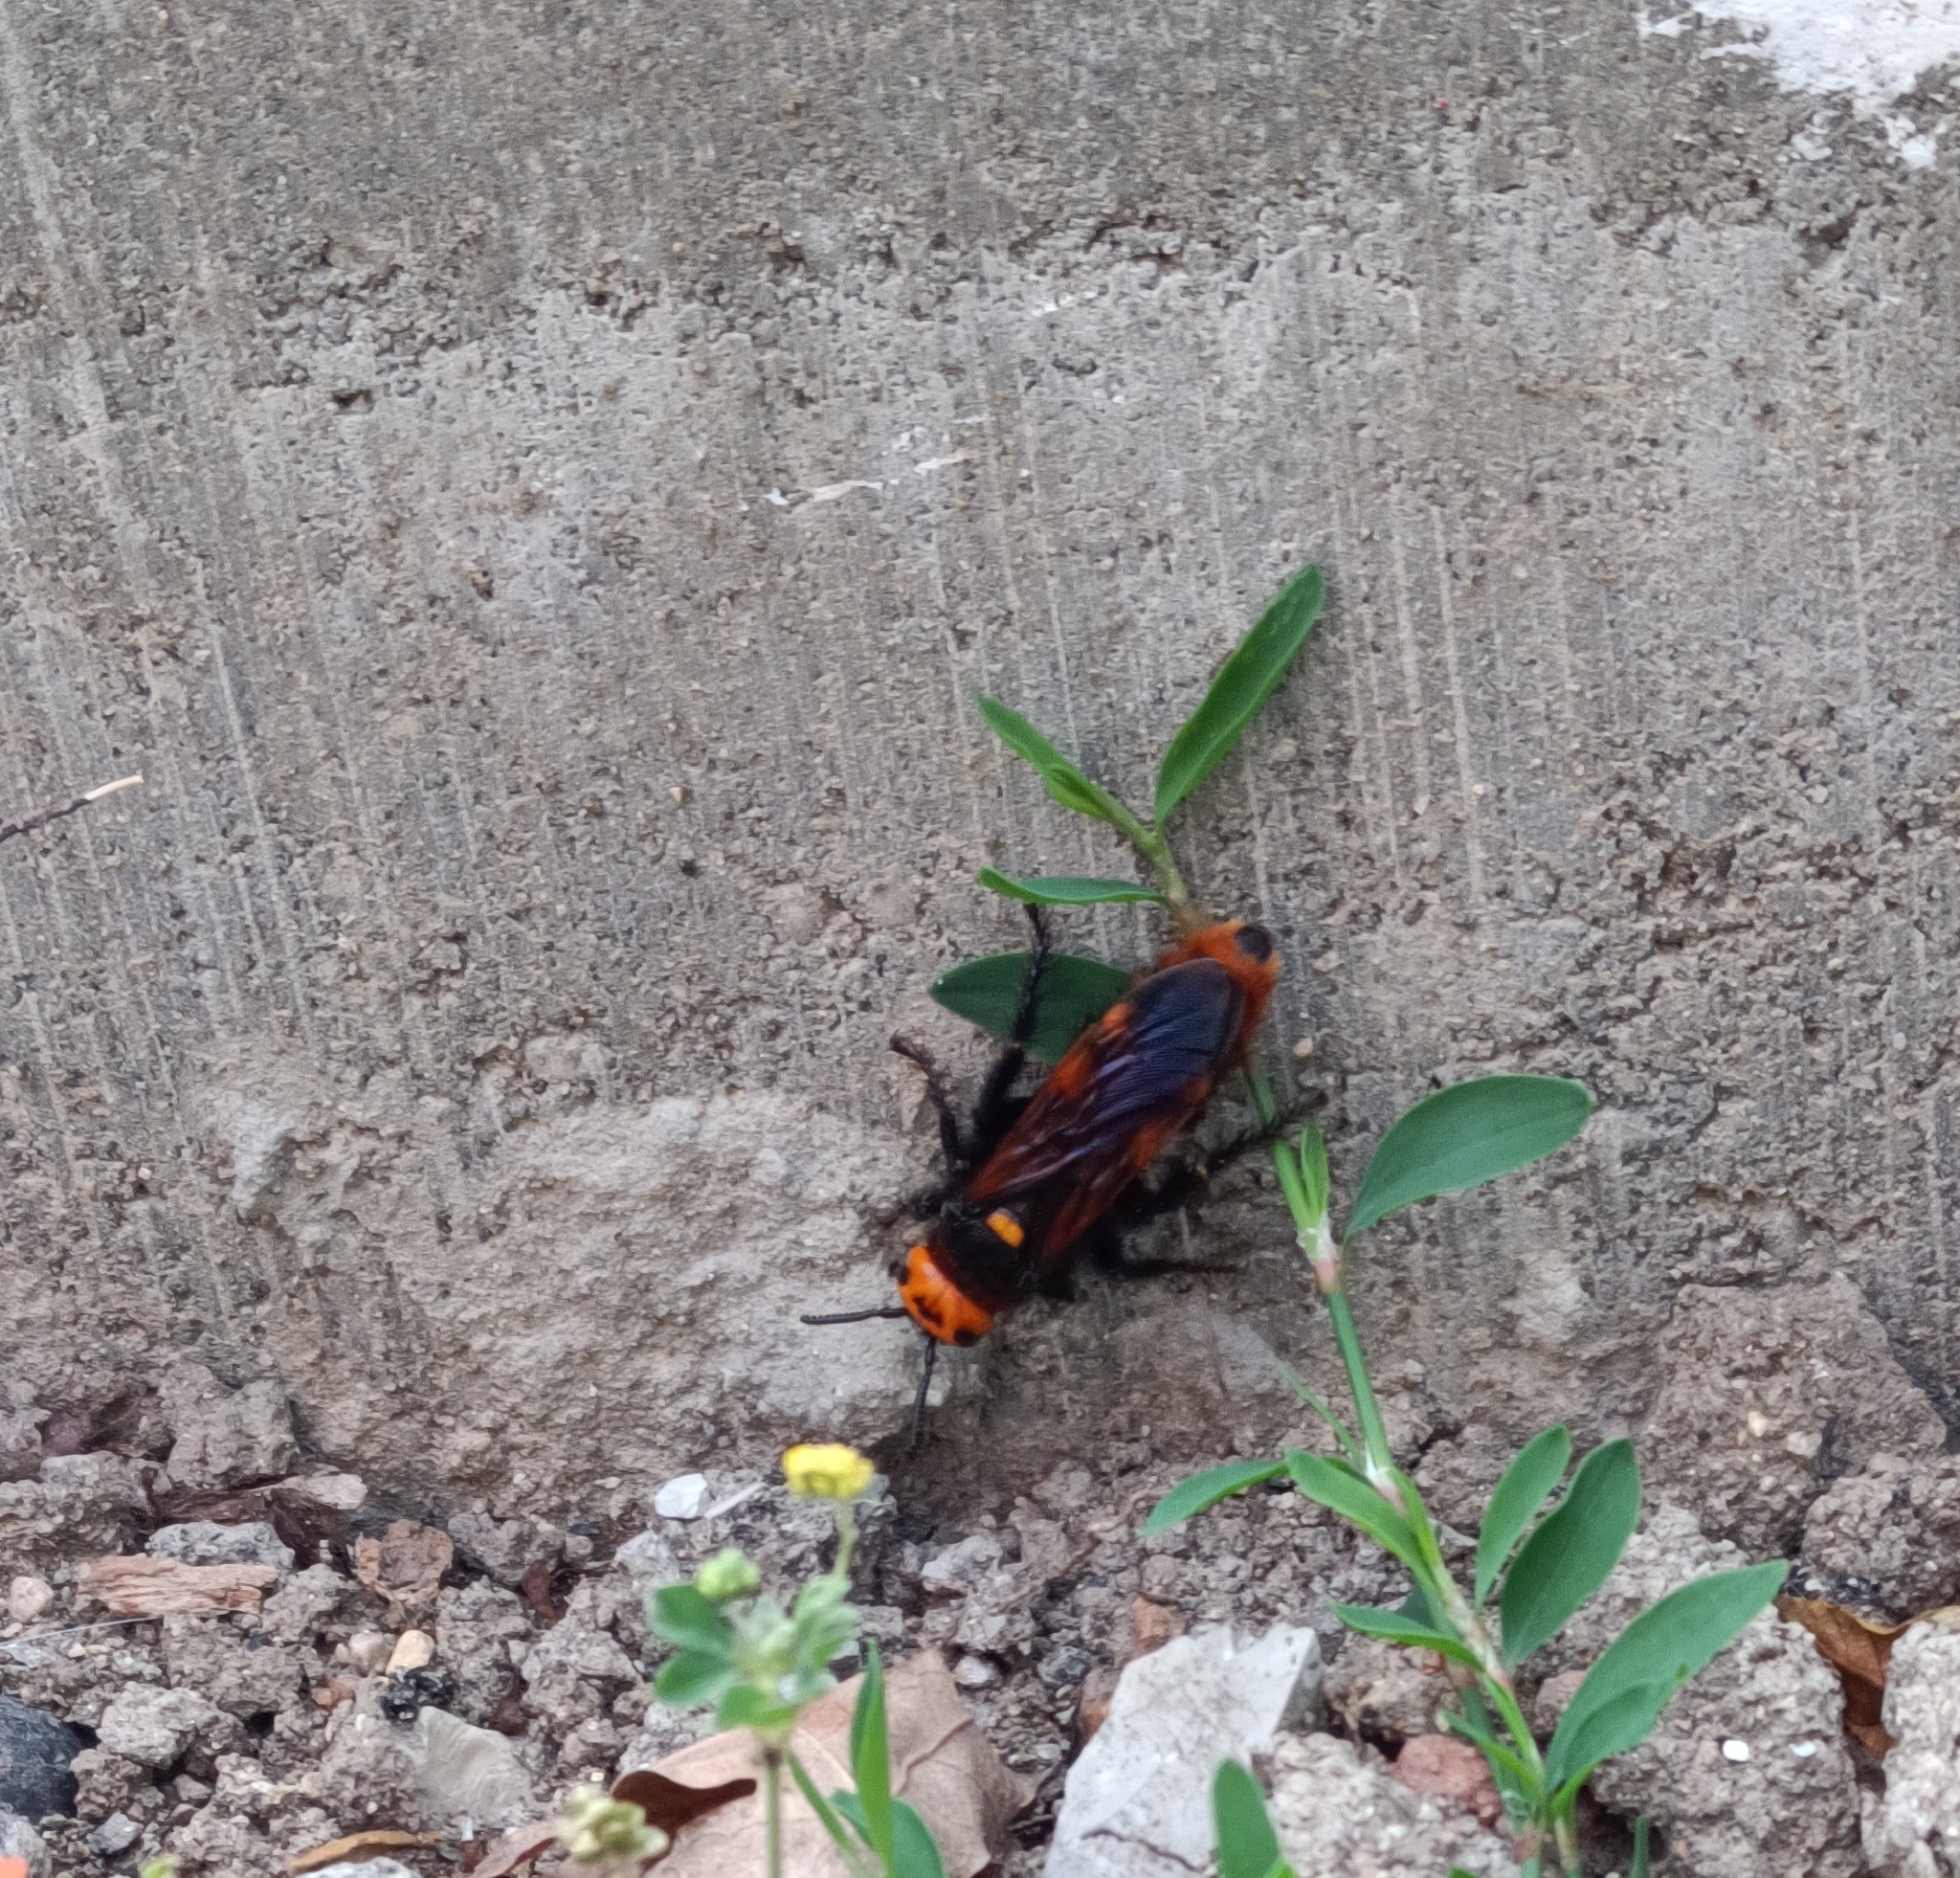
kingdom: Animalia
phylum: Arthropoda
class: Insecta
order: Hymenoptera
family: Scoliidae
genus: Megascolia
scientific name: Megascolia maculata
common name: Mammoth wasp
